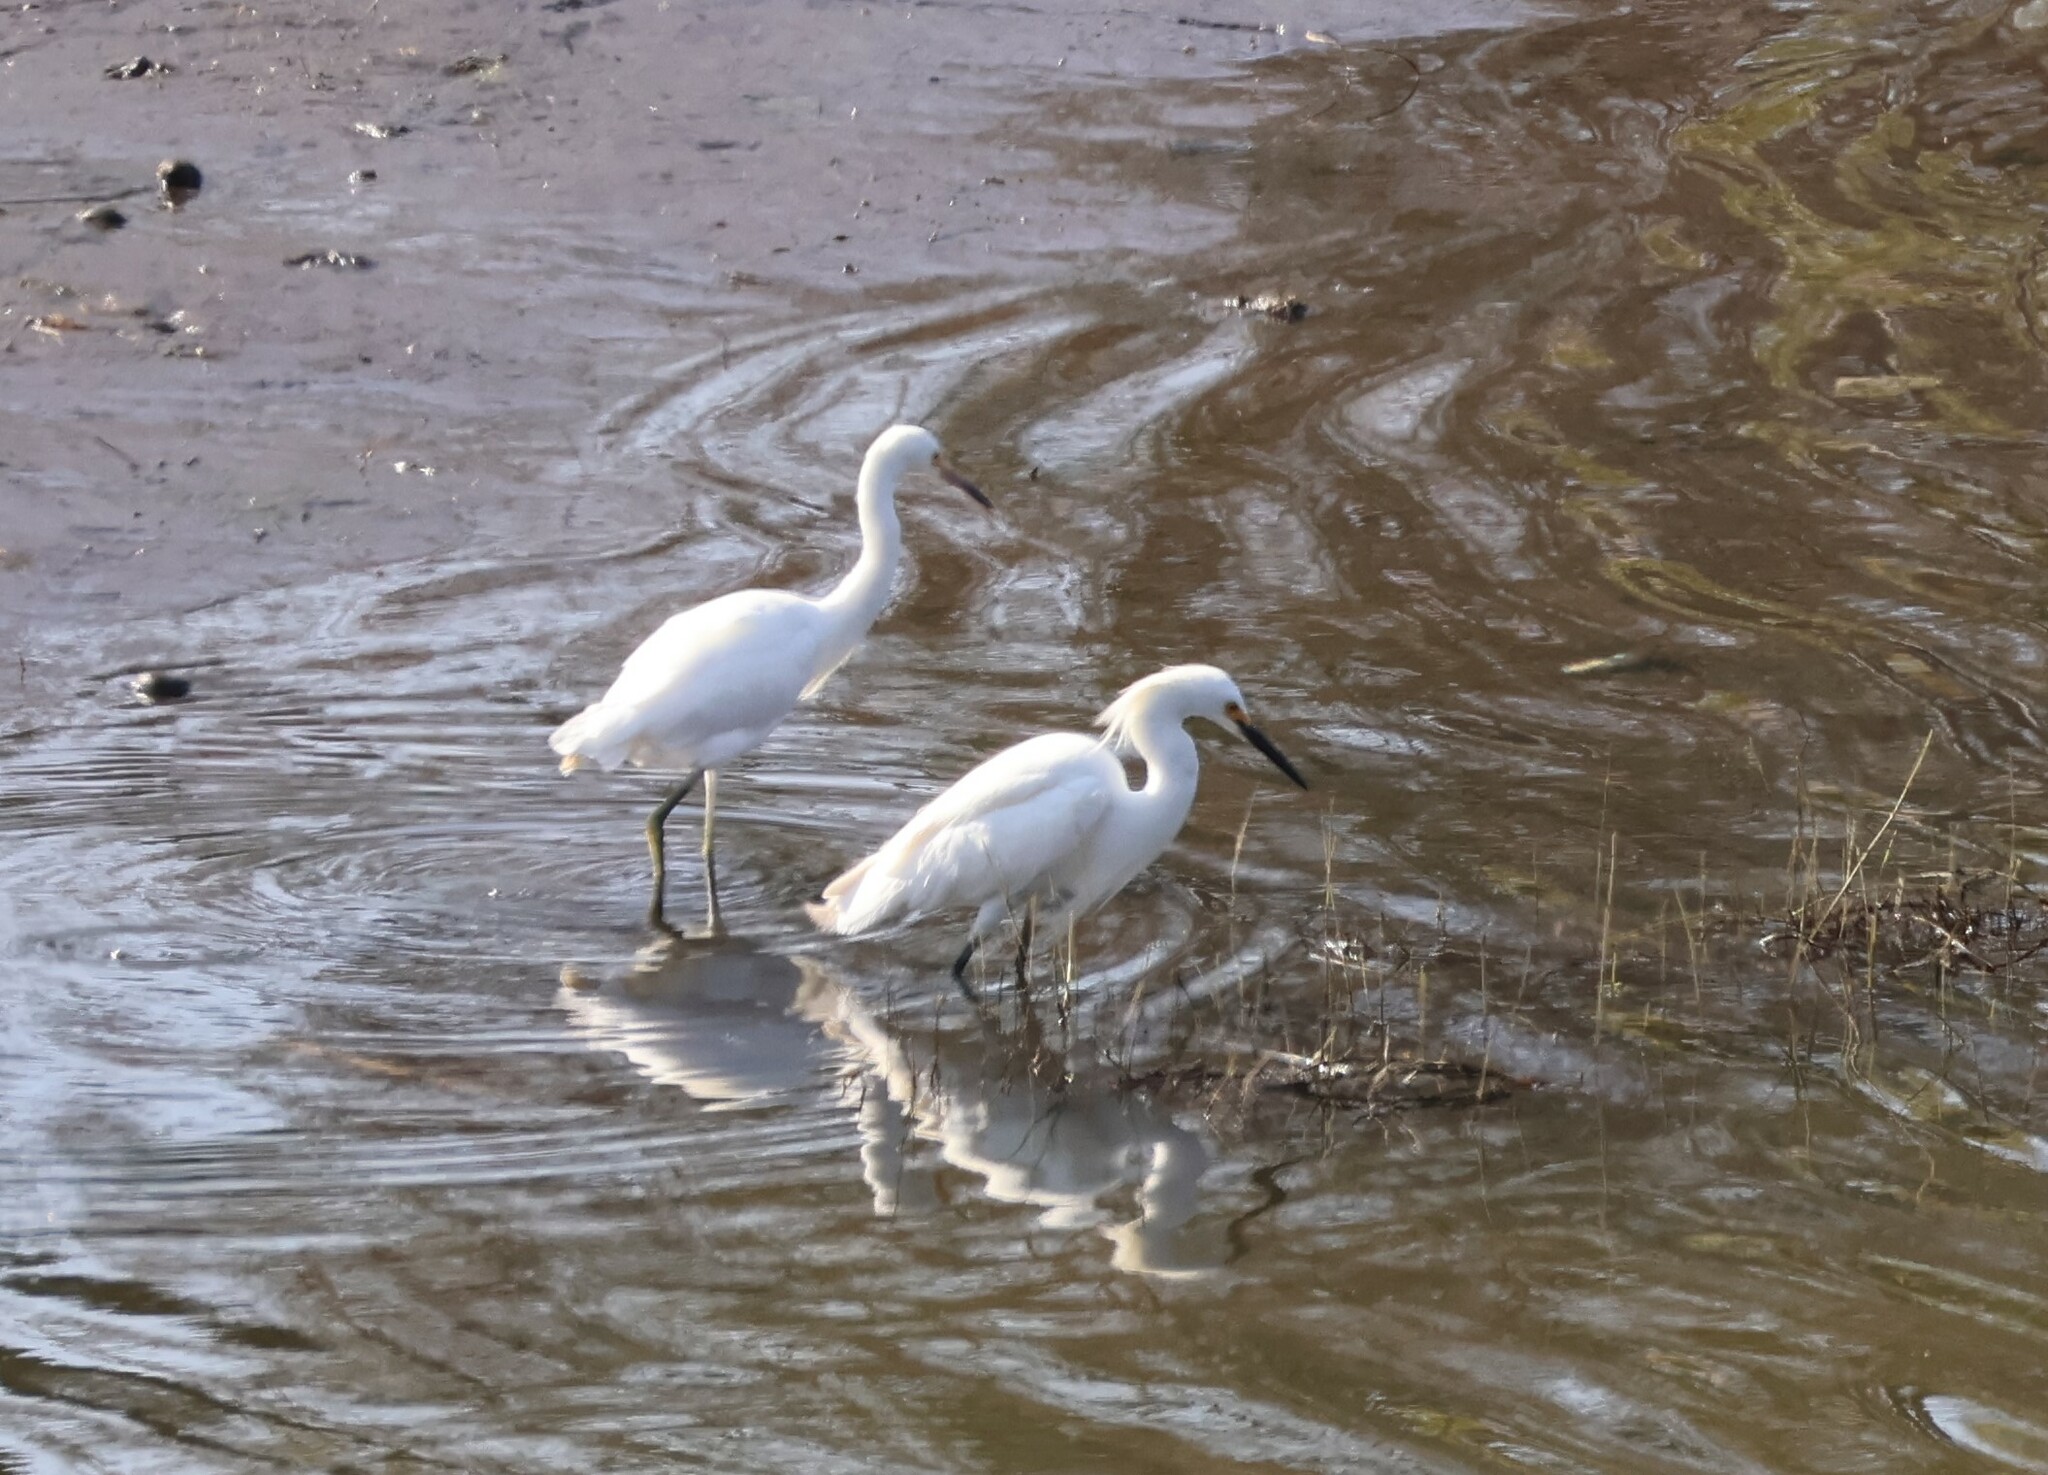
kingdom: Animalia
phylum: Chordata
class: Aves
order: Pelecaniformes
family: Ardeidae
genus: Egretta
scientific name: Egretta thula
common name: Snowy egret
